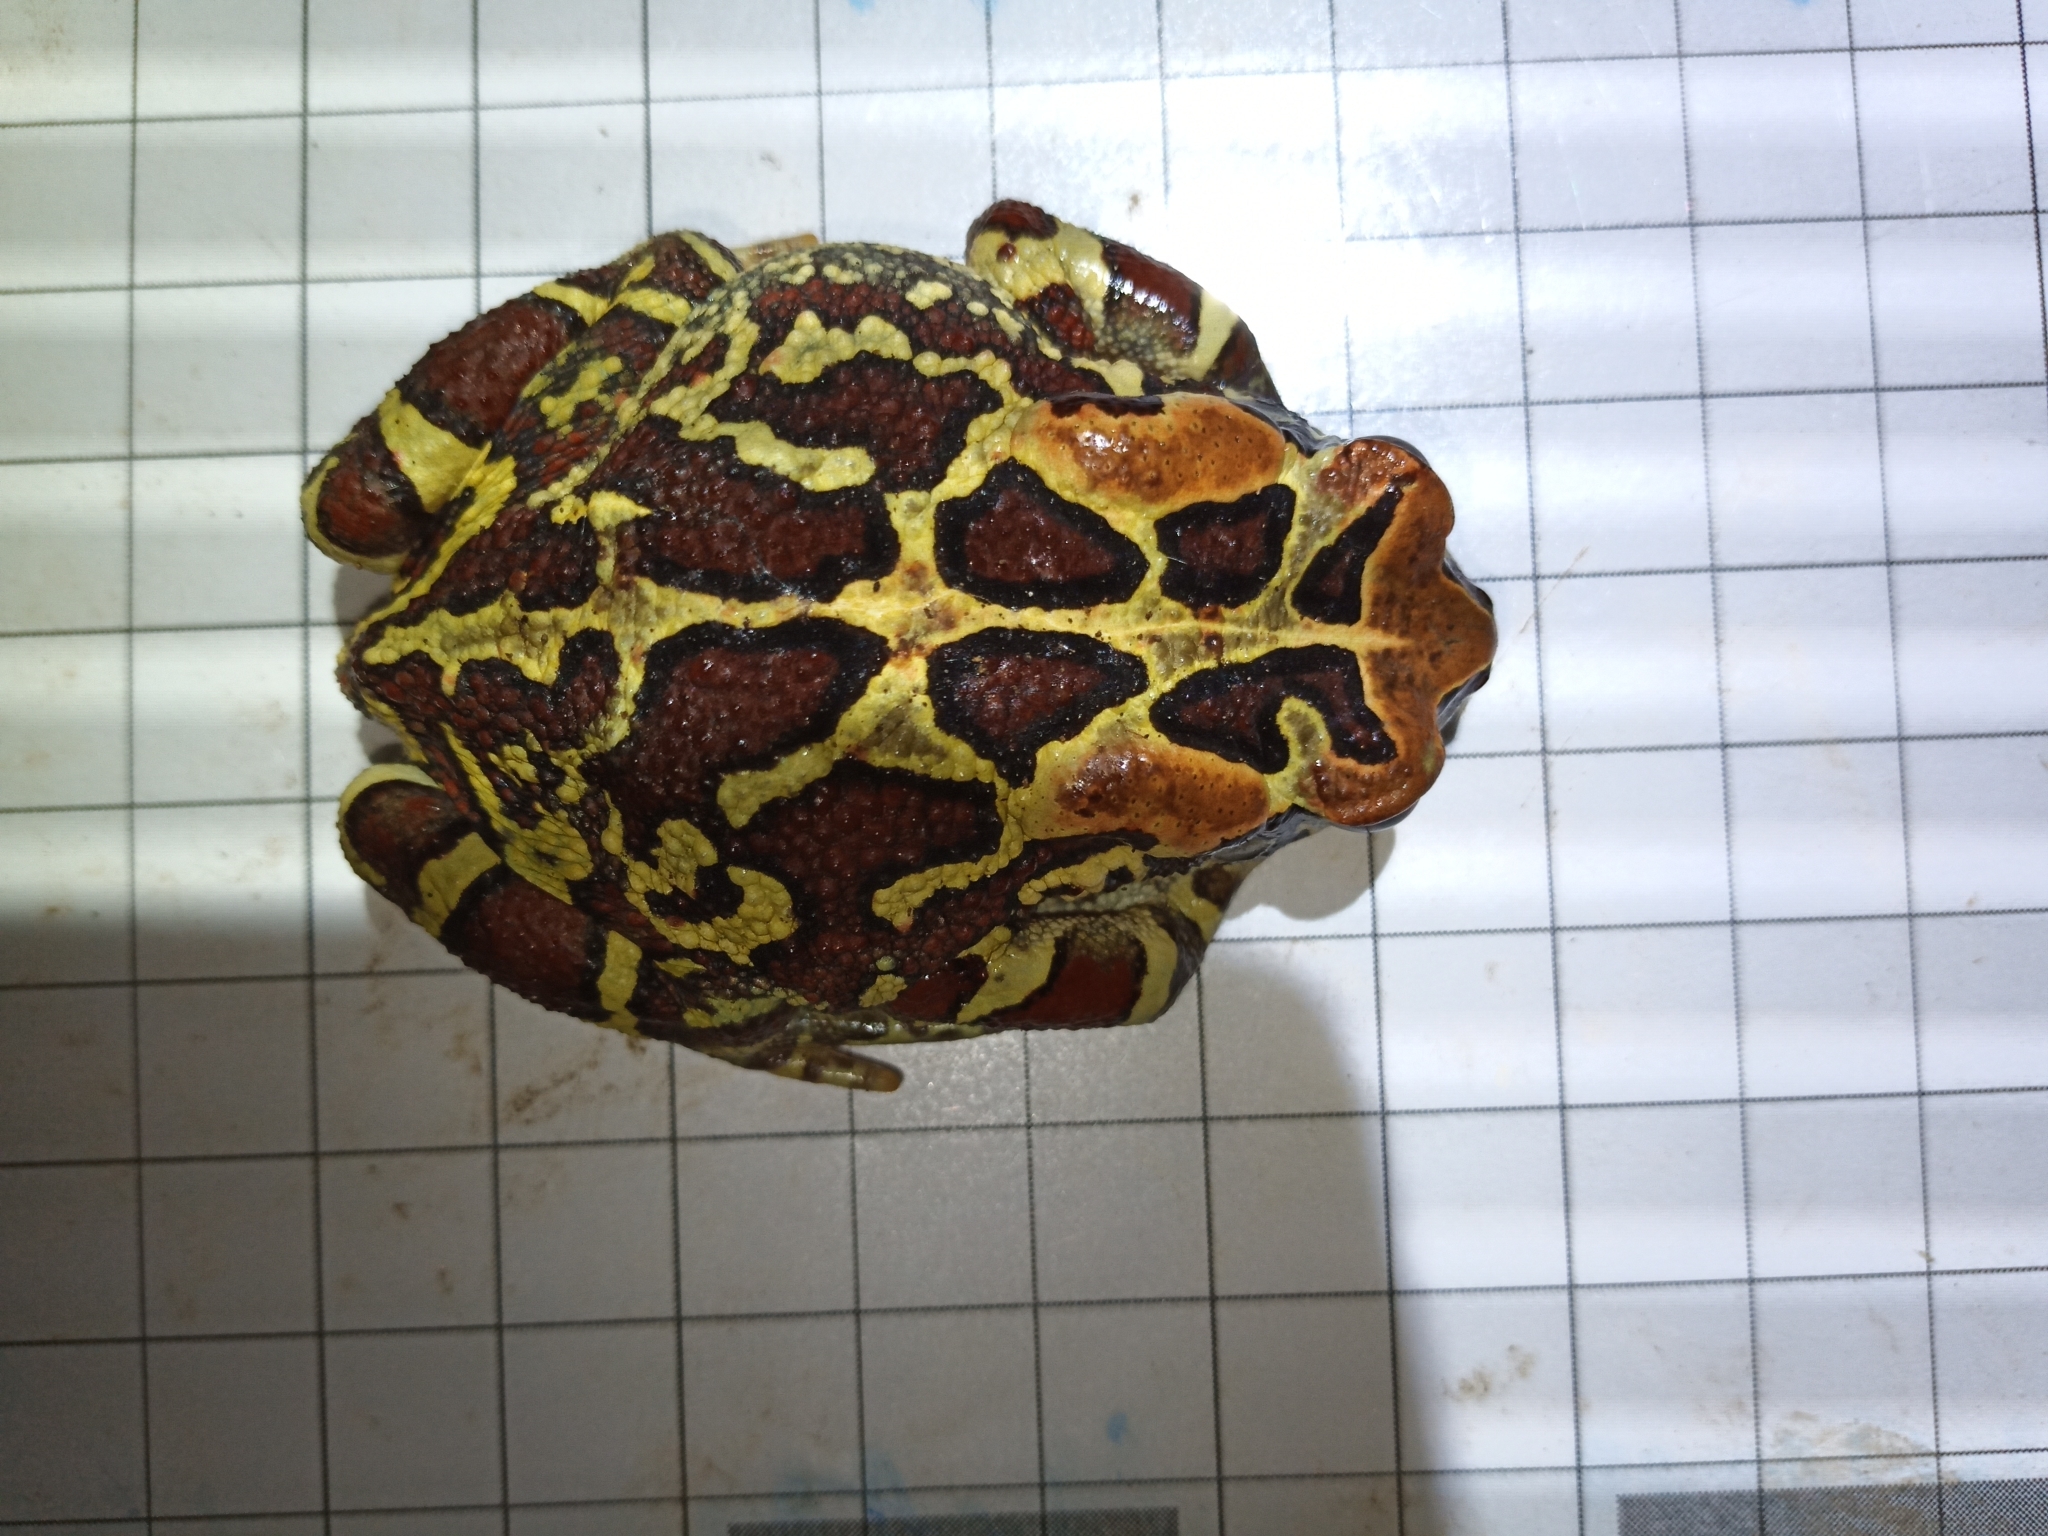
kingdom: Animalia
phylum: Chordata
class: Amphibia
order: Anura
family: Bufonidae
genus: Sclerophrys
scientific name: Sclerophrys pantherina
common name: Panther toad
